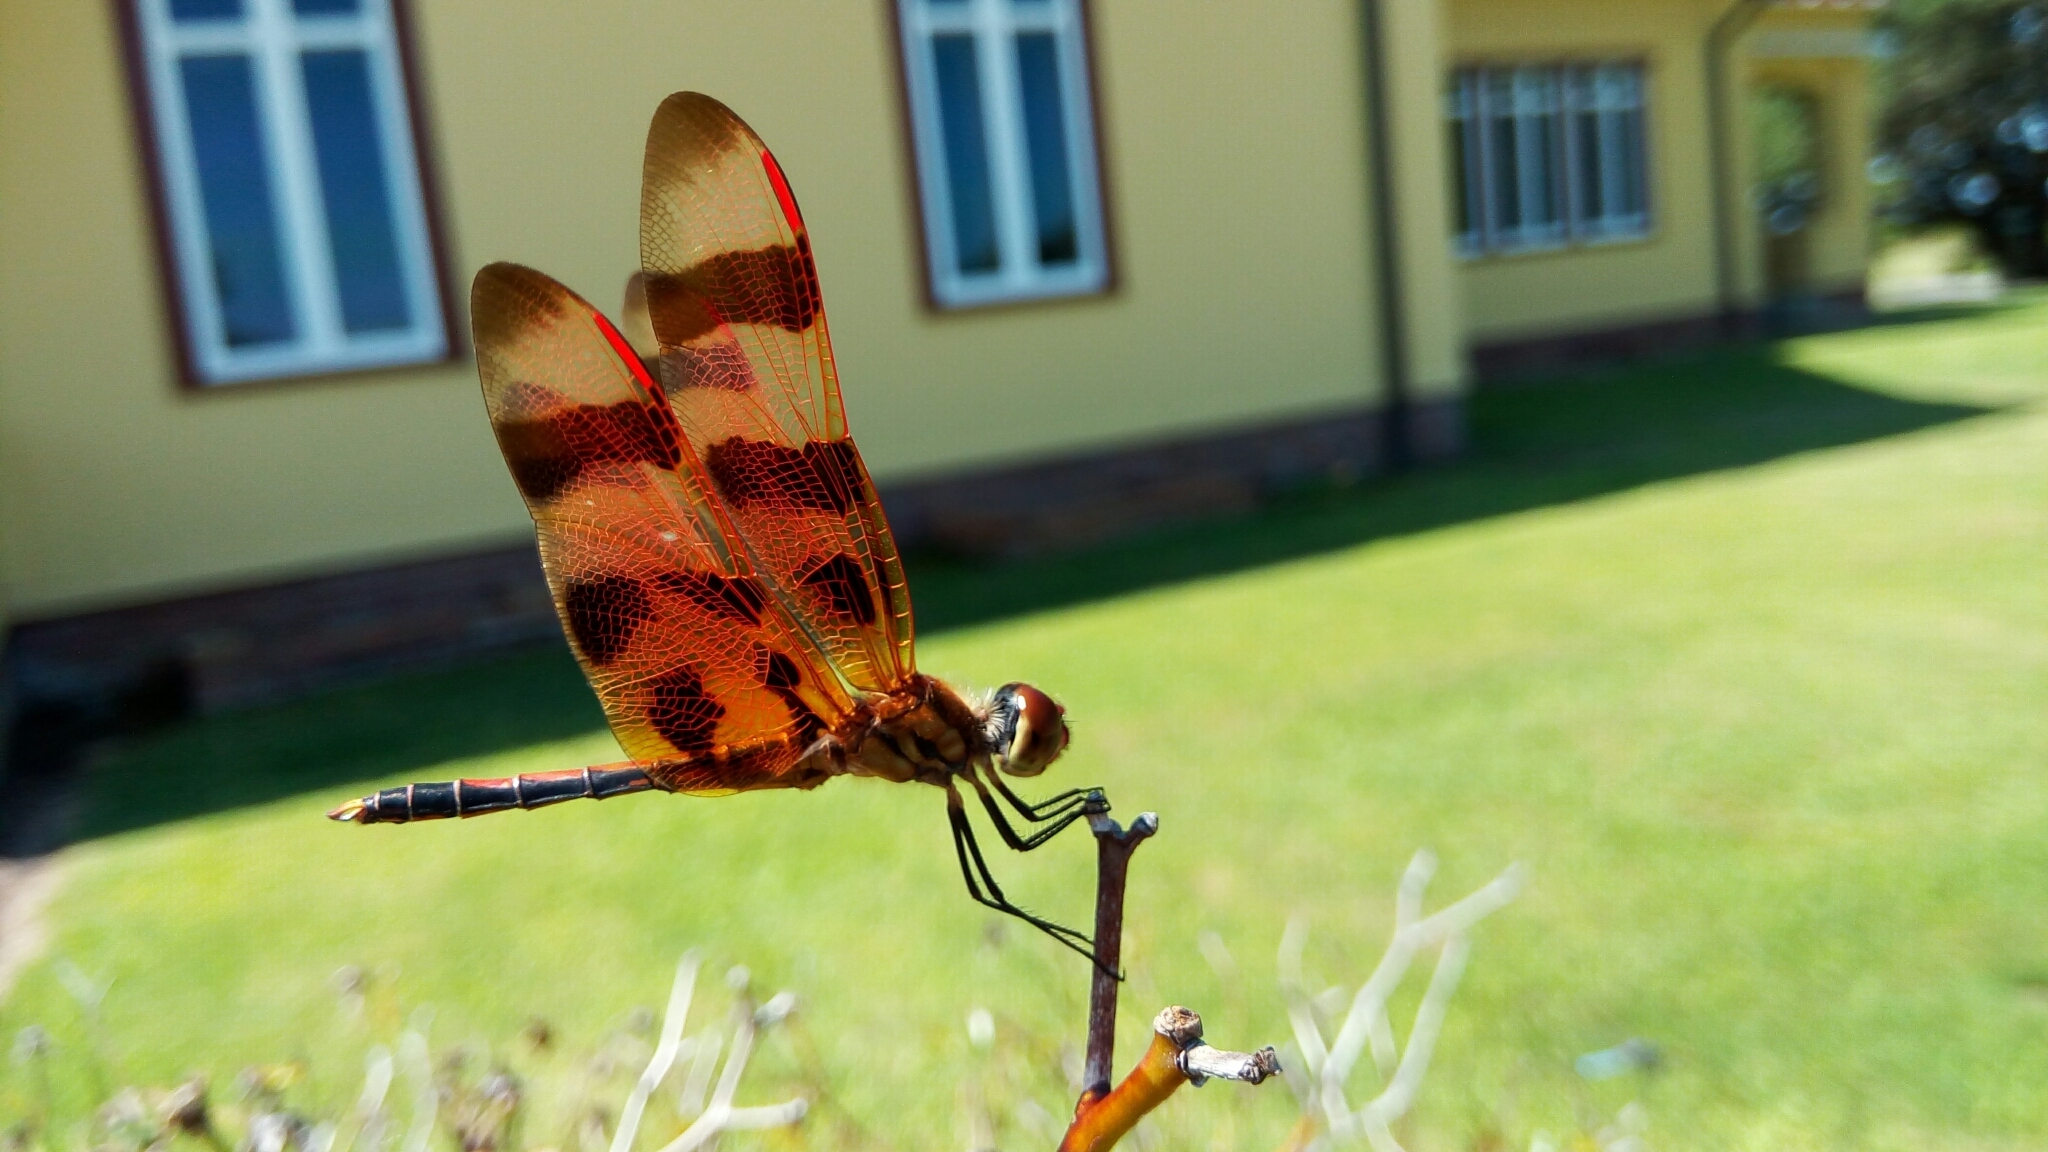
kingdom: Animalia
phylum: Arthropoda
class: Insecta
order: Odonata
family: Libellulidae
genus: Celithemis
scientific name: Celithemis eponina
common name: Halloween pennant
